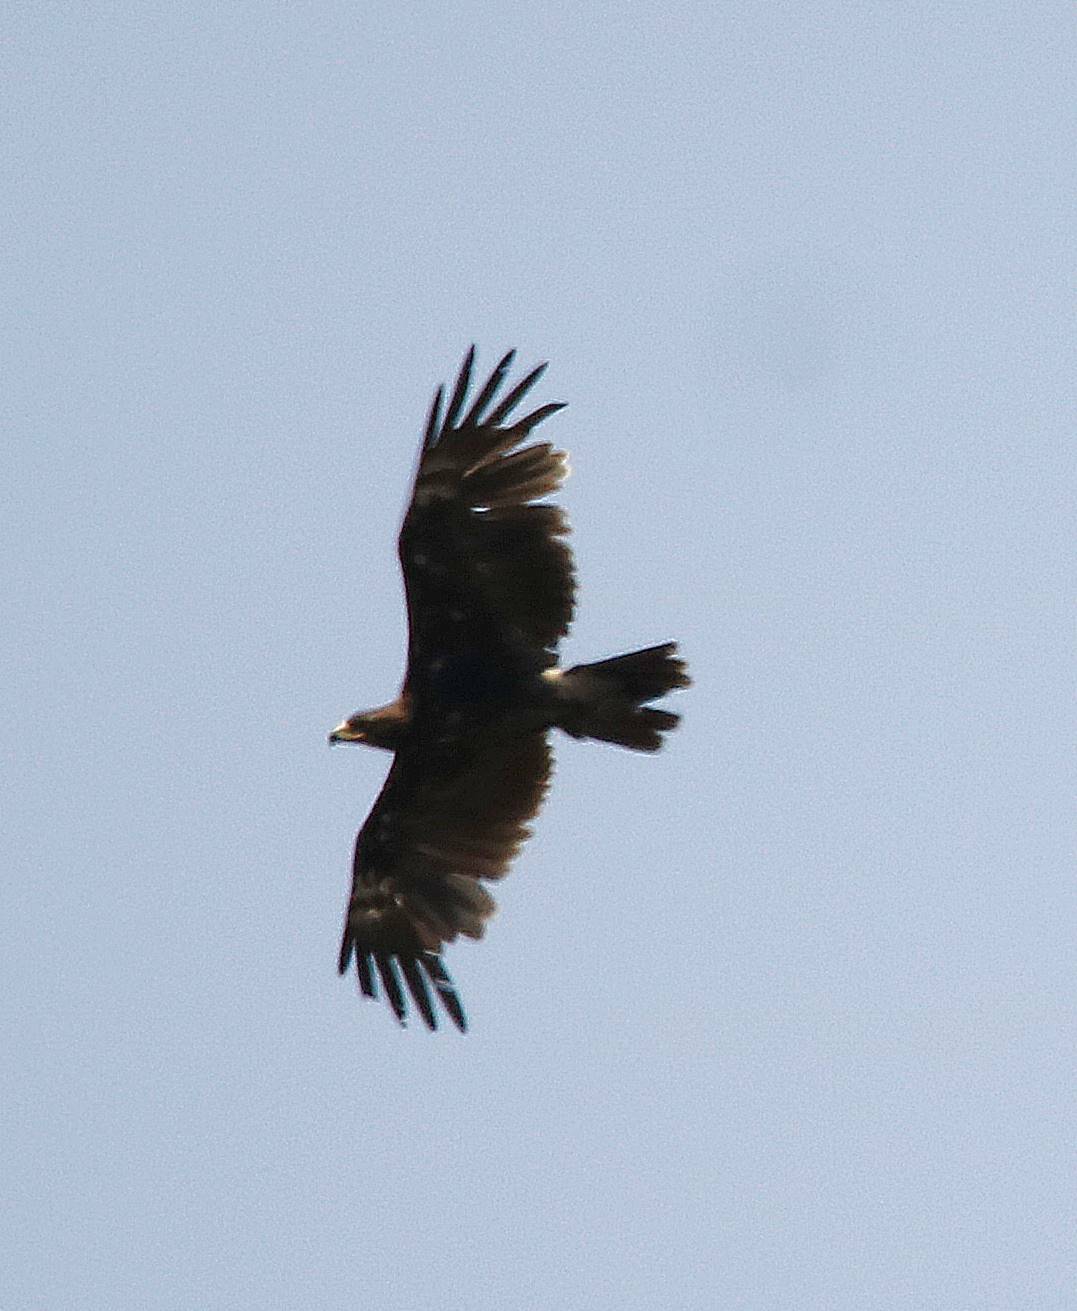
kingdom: Animalia
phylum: Chordata
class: Aves
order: Accipitriformes
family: Accipitridae
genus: Aquila
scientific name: Aquila clanga
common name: Greater spotted eagle
